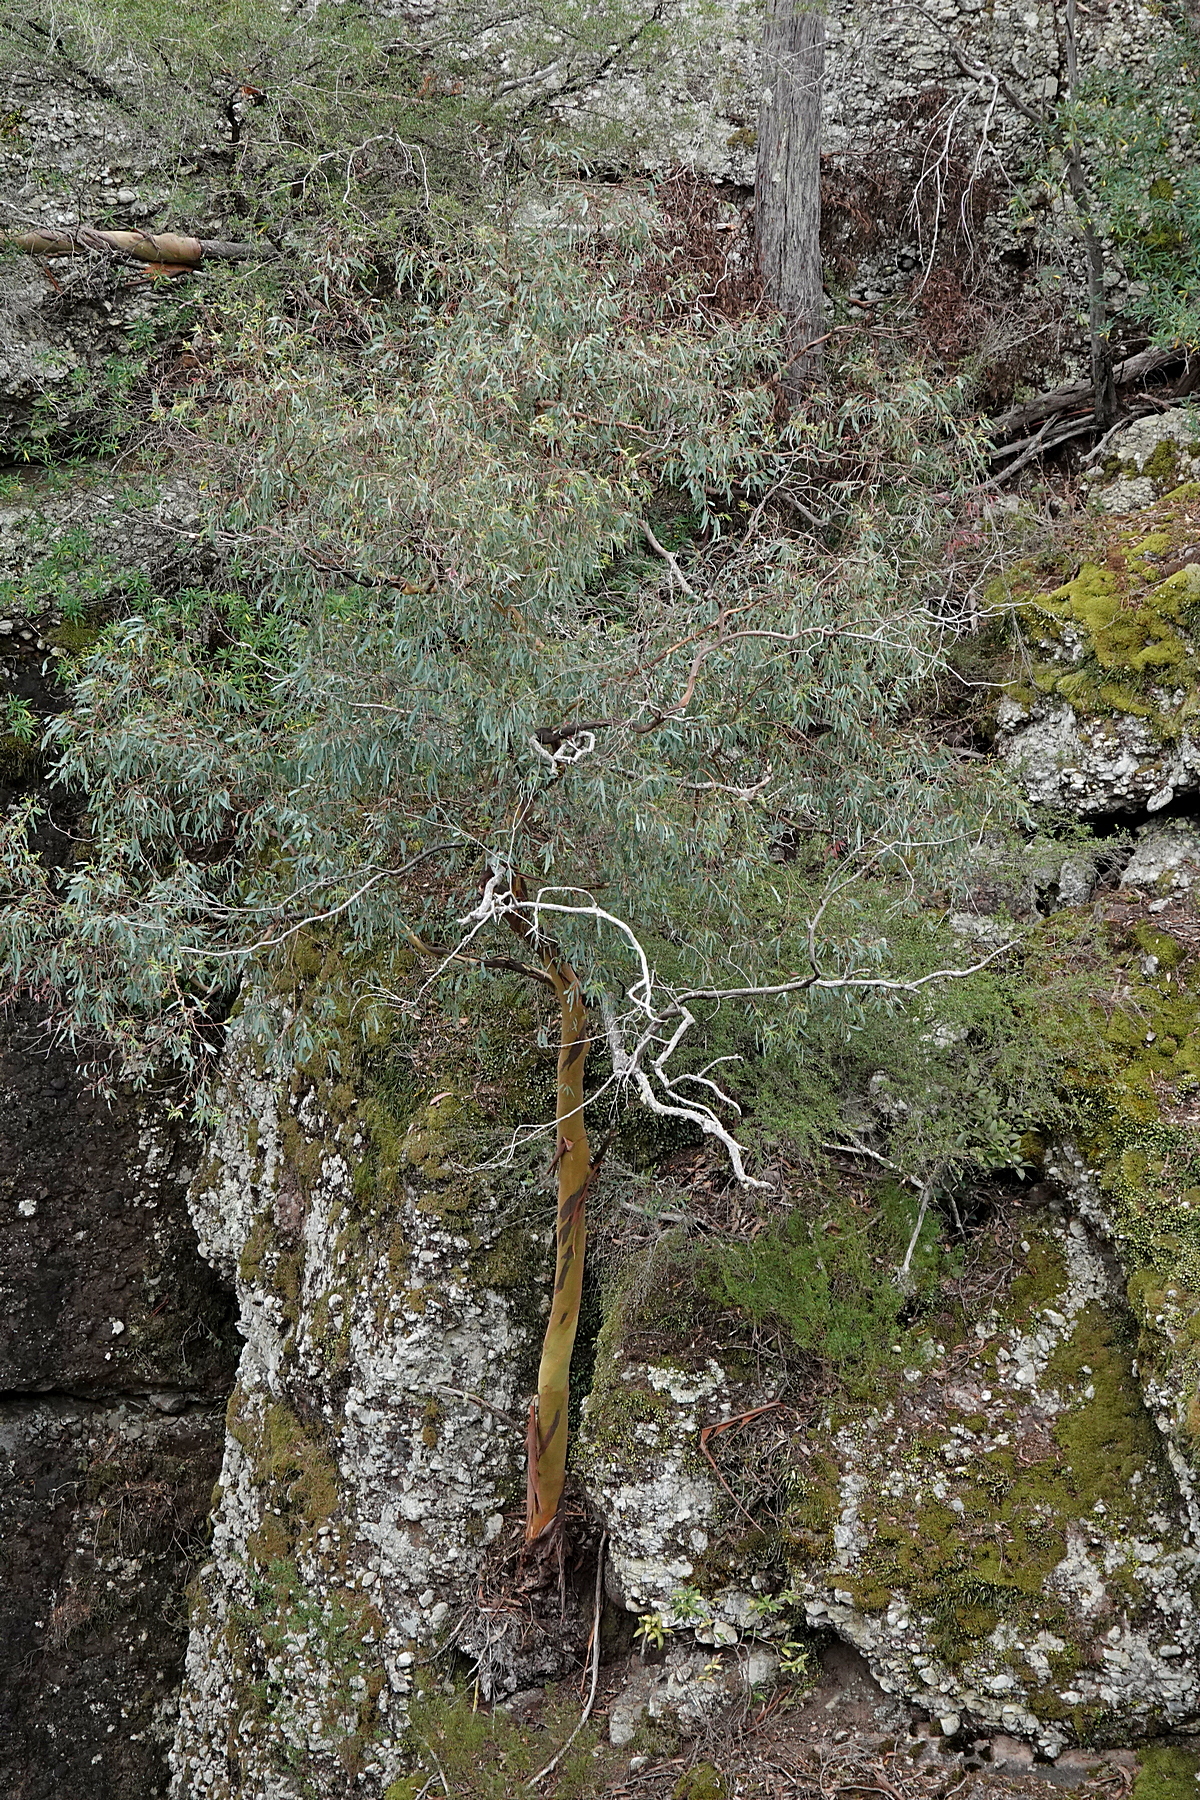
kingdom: Plantae
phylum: Tracheophyta
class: Magnoliopsida
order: Myrtales
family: Myrtaceae
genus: Eucalyptus
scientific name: Eucalyptus wilcoxii
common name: Deua gum
